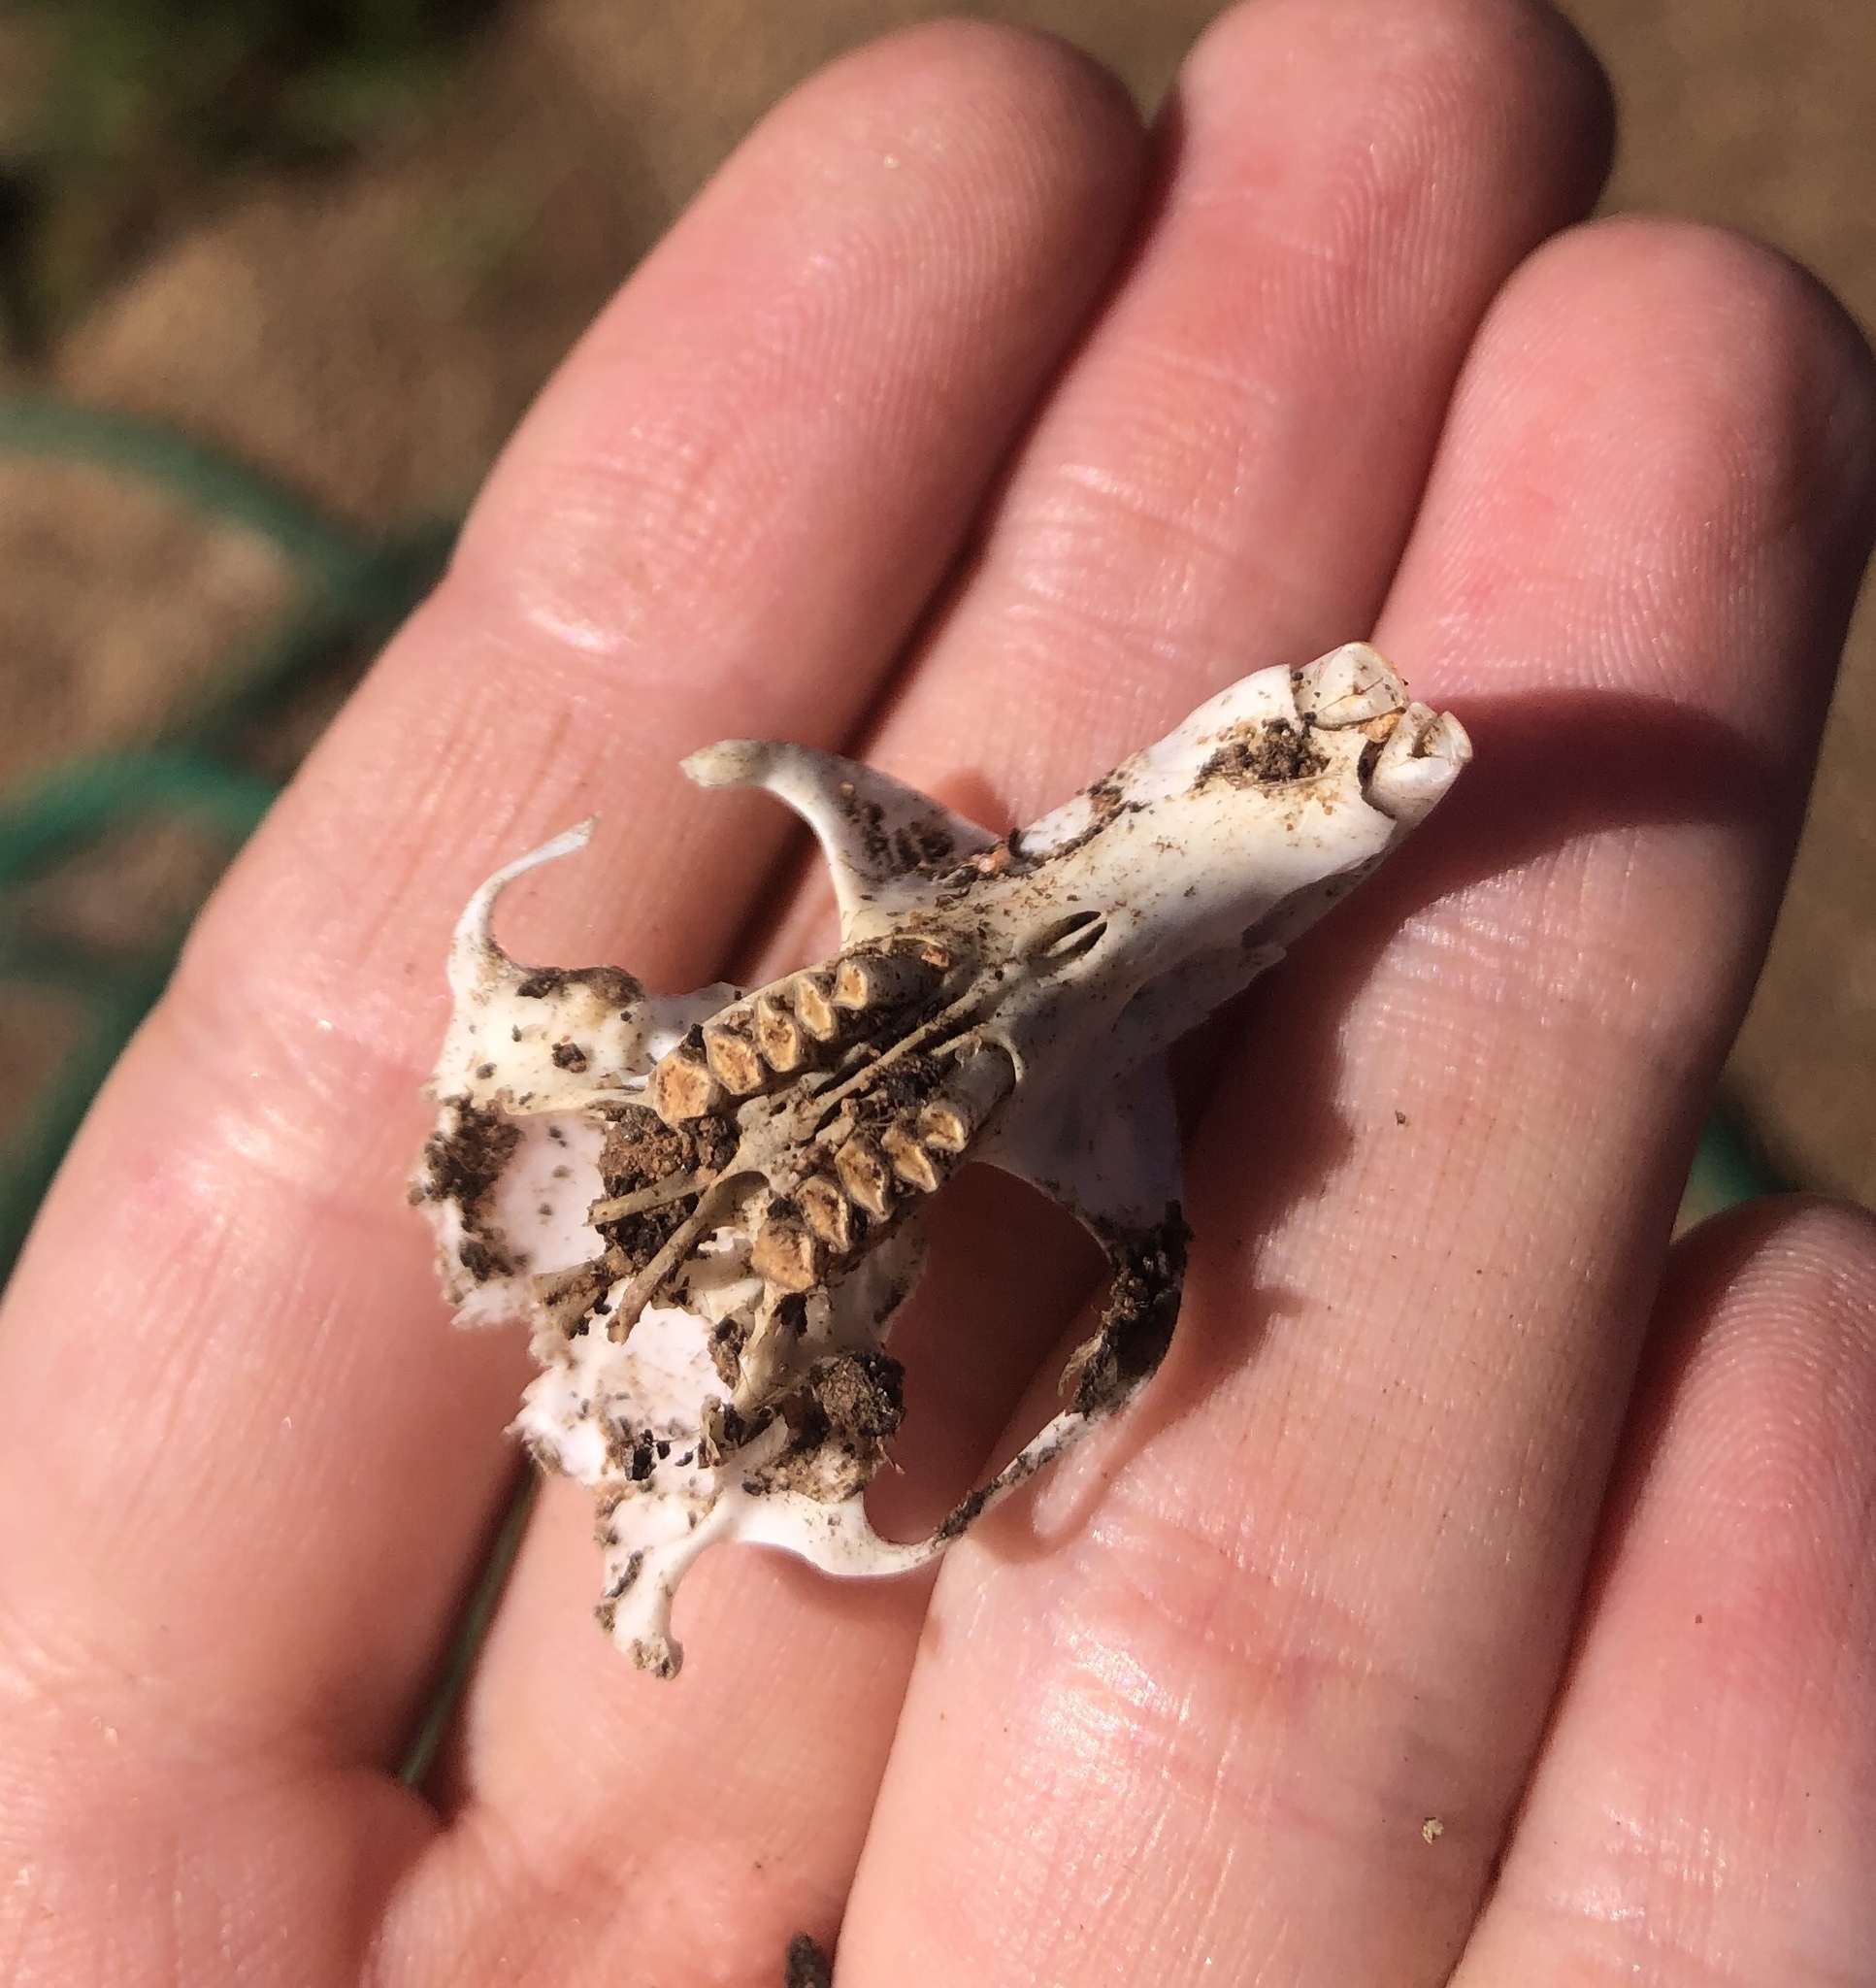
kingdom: Animalia
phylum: Chordata
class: Mammalia
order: Rodentia
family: Geomyidae
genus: Thomomys
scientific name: Thomomys bottae
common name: Botta's pocket gopher
